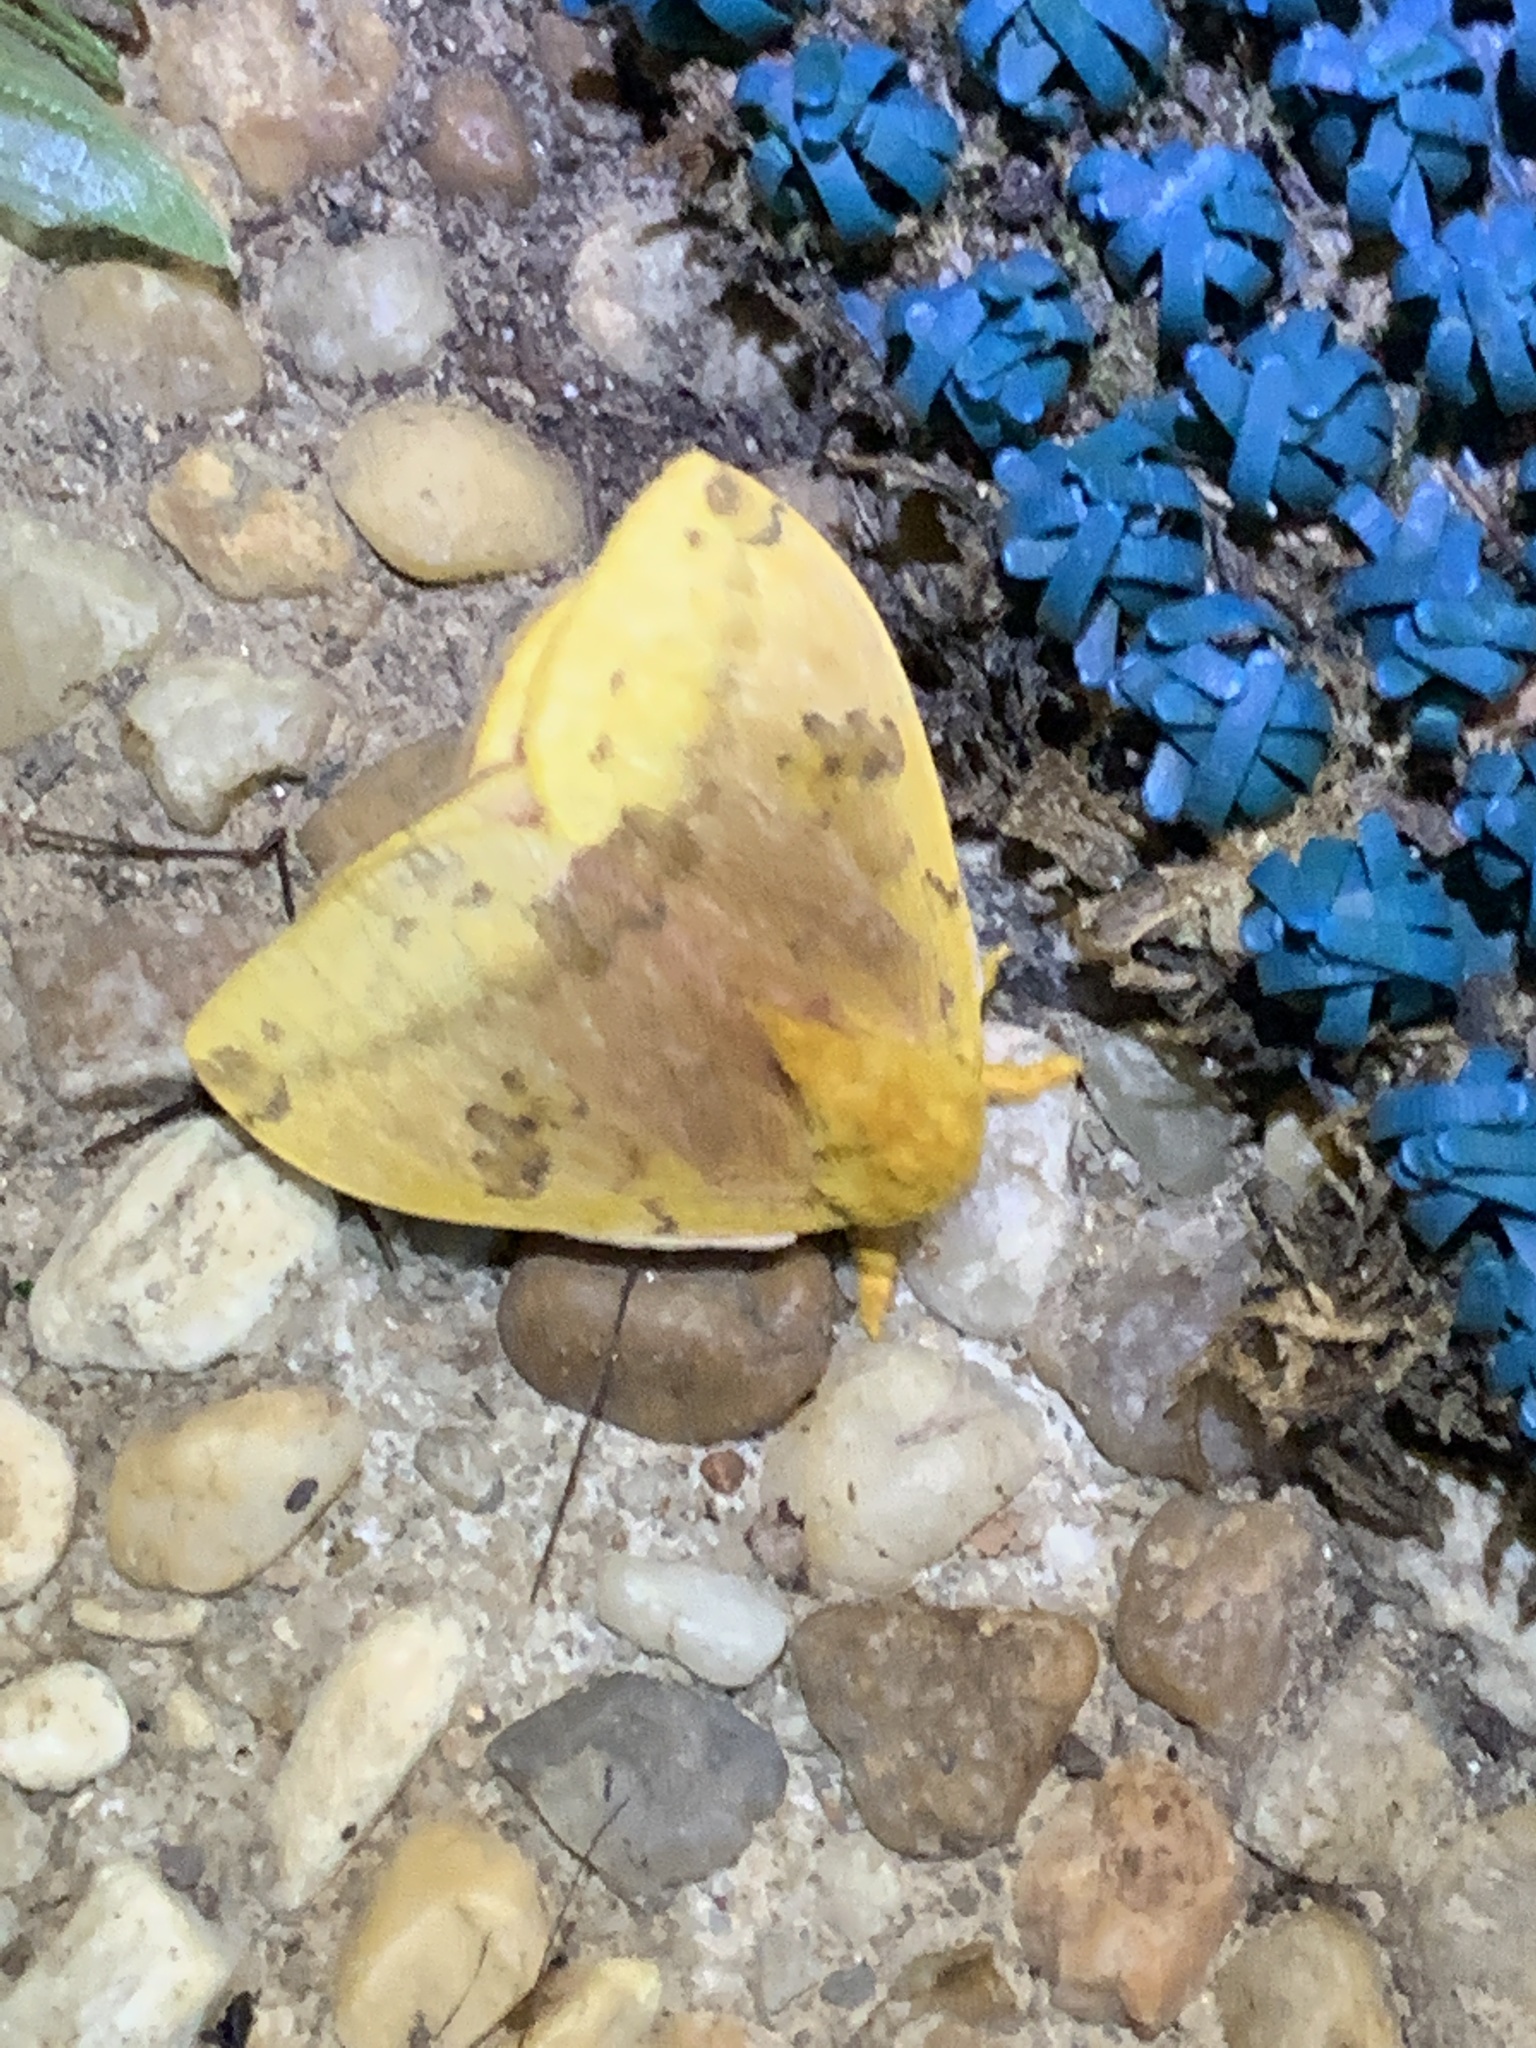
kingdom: Animalia
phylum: Arthropoda
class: Insecta
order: Lepidoptera
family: Saturniidae
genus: Automeris
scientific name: Automeris io
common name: Io moth
